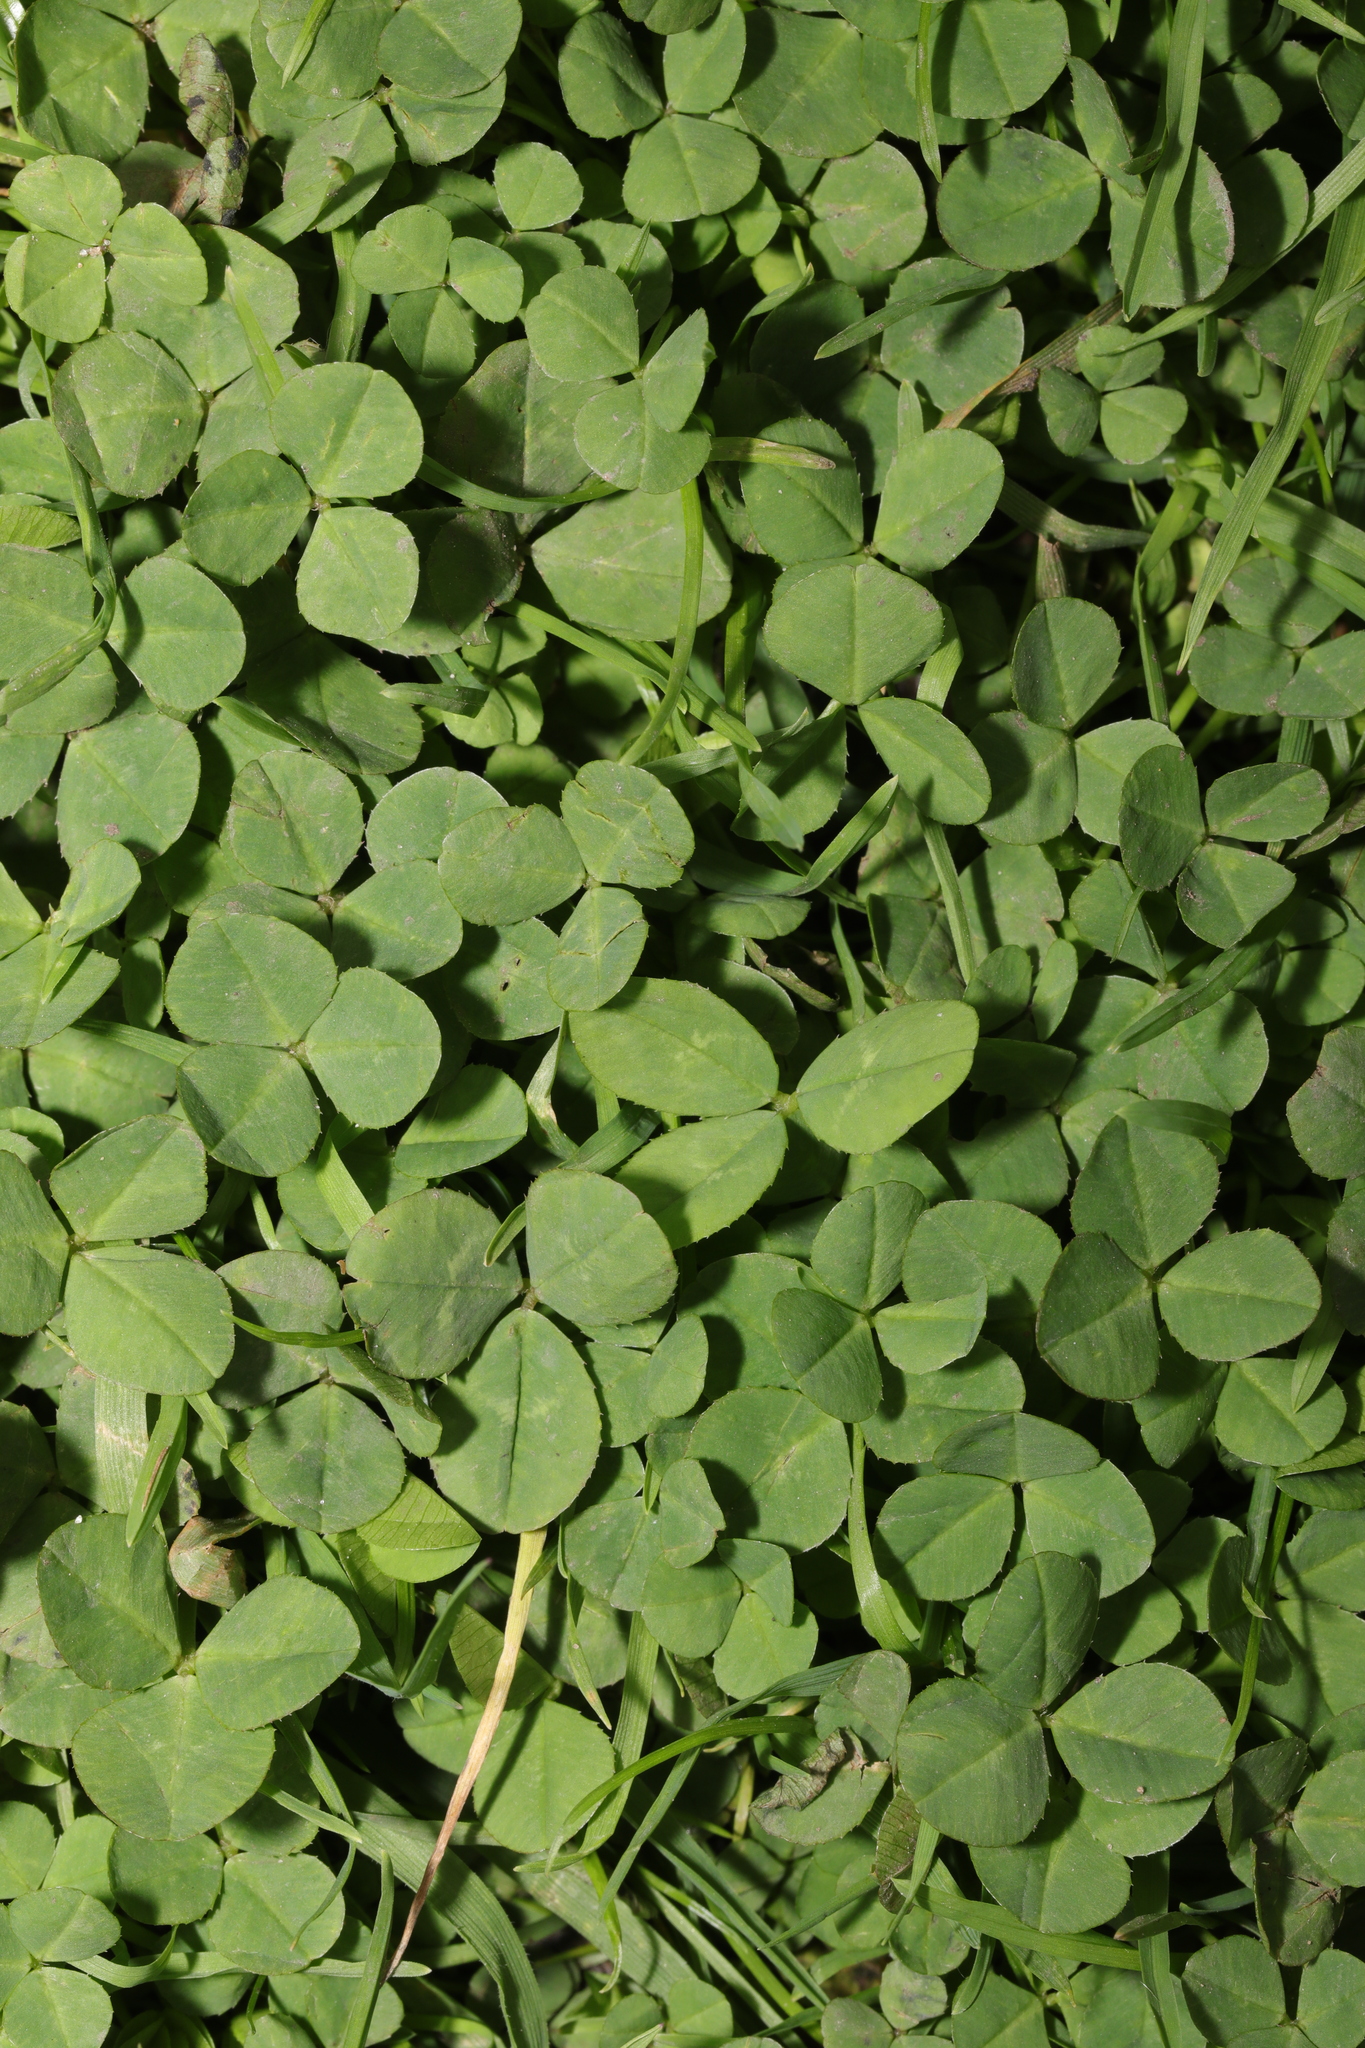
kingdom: Plantae
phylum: Tracheophyta
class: Magnoliopsida
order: Fabales
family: Fabaceae
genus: Trifolium
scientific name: Trifolium repens
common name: White clover
